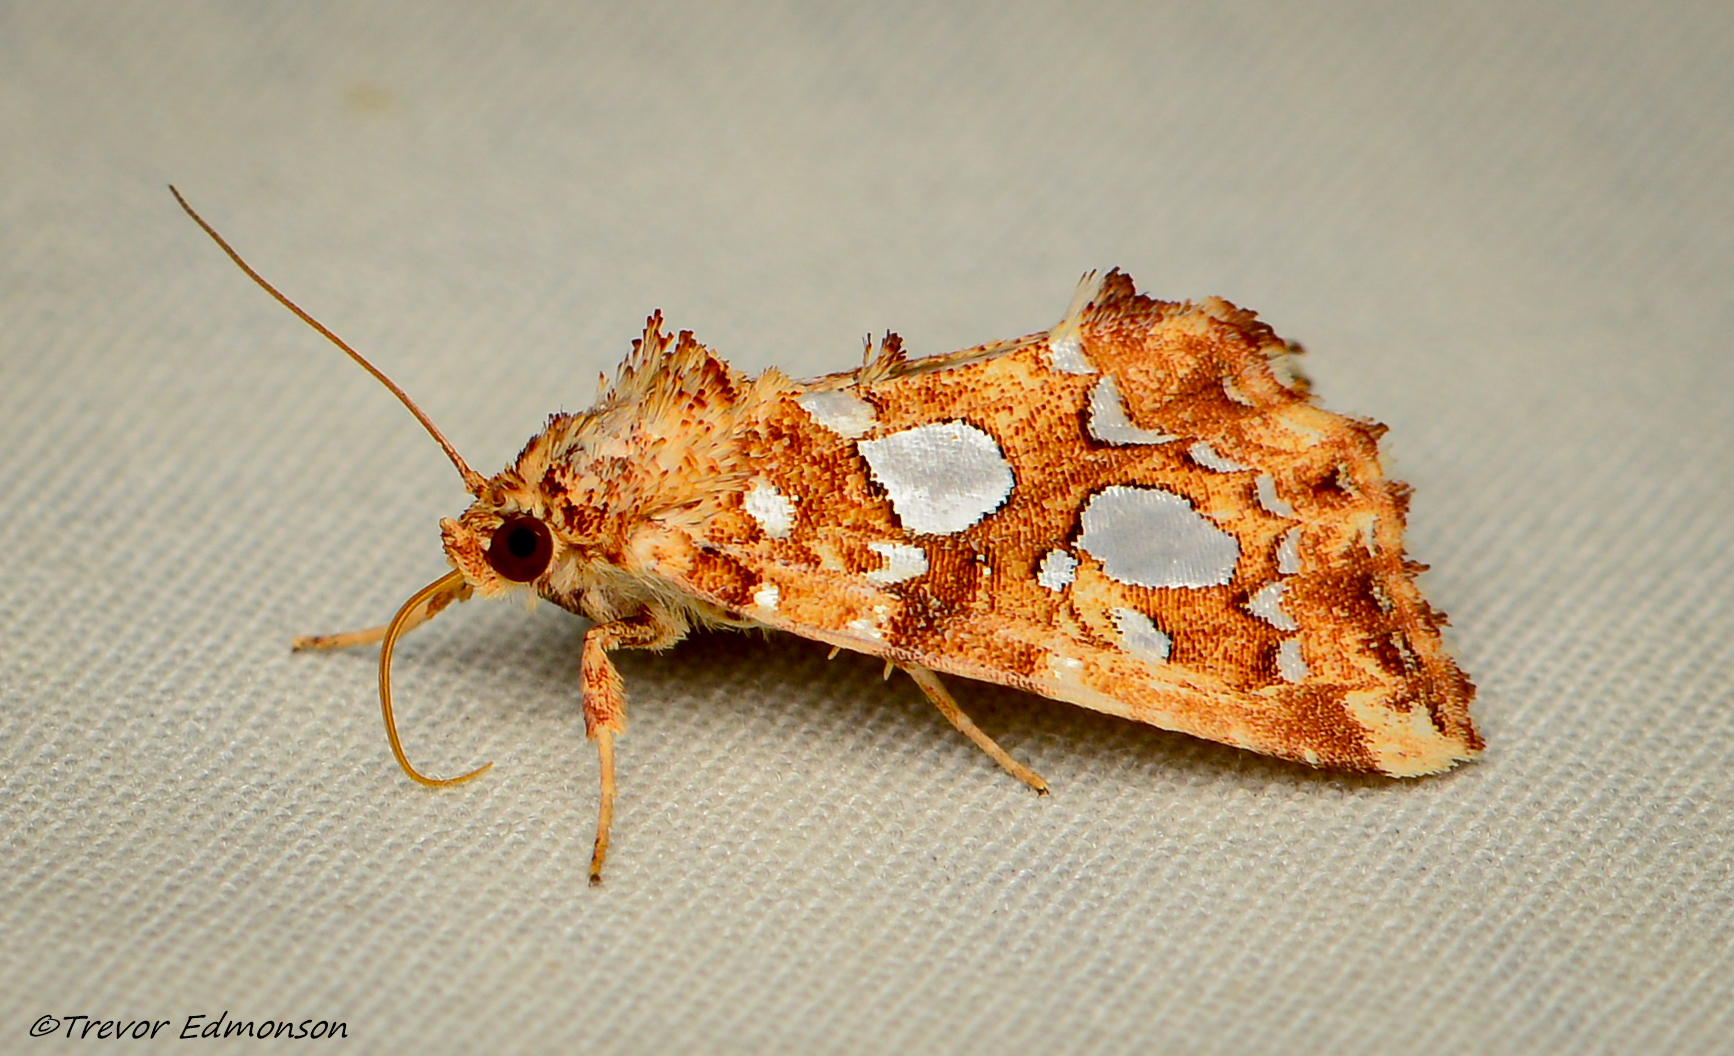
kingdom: Animalia
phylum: Arthropoda
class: Insecta
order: Lepidoptera
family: Noctuidae
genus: Callopistria
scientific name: Callopistria cordata
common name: Silver-spotted fern moth
